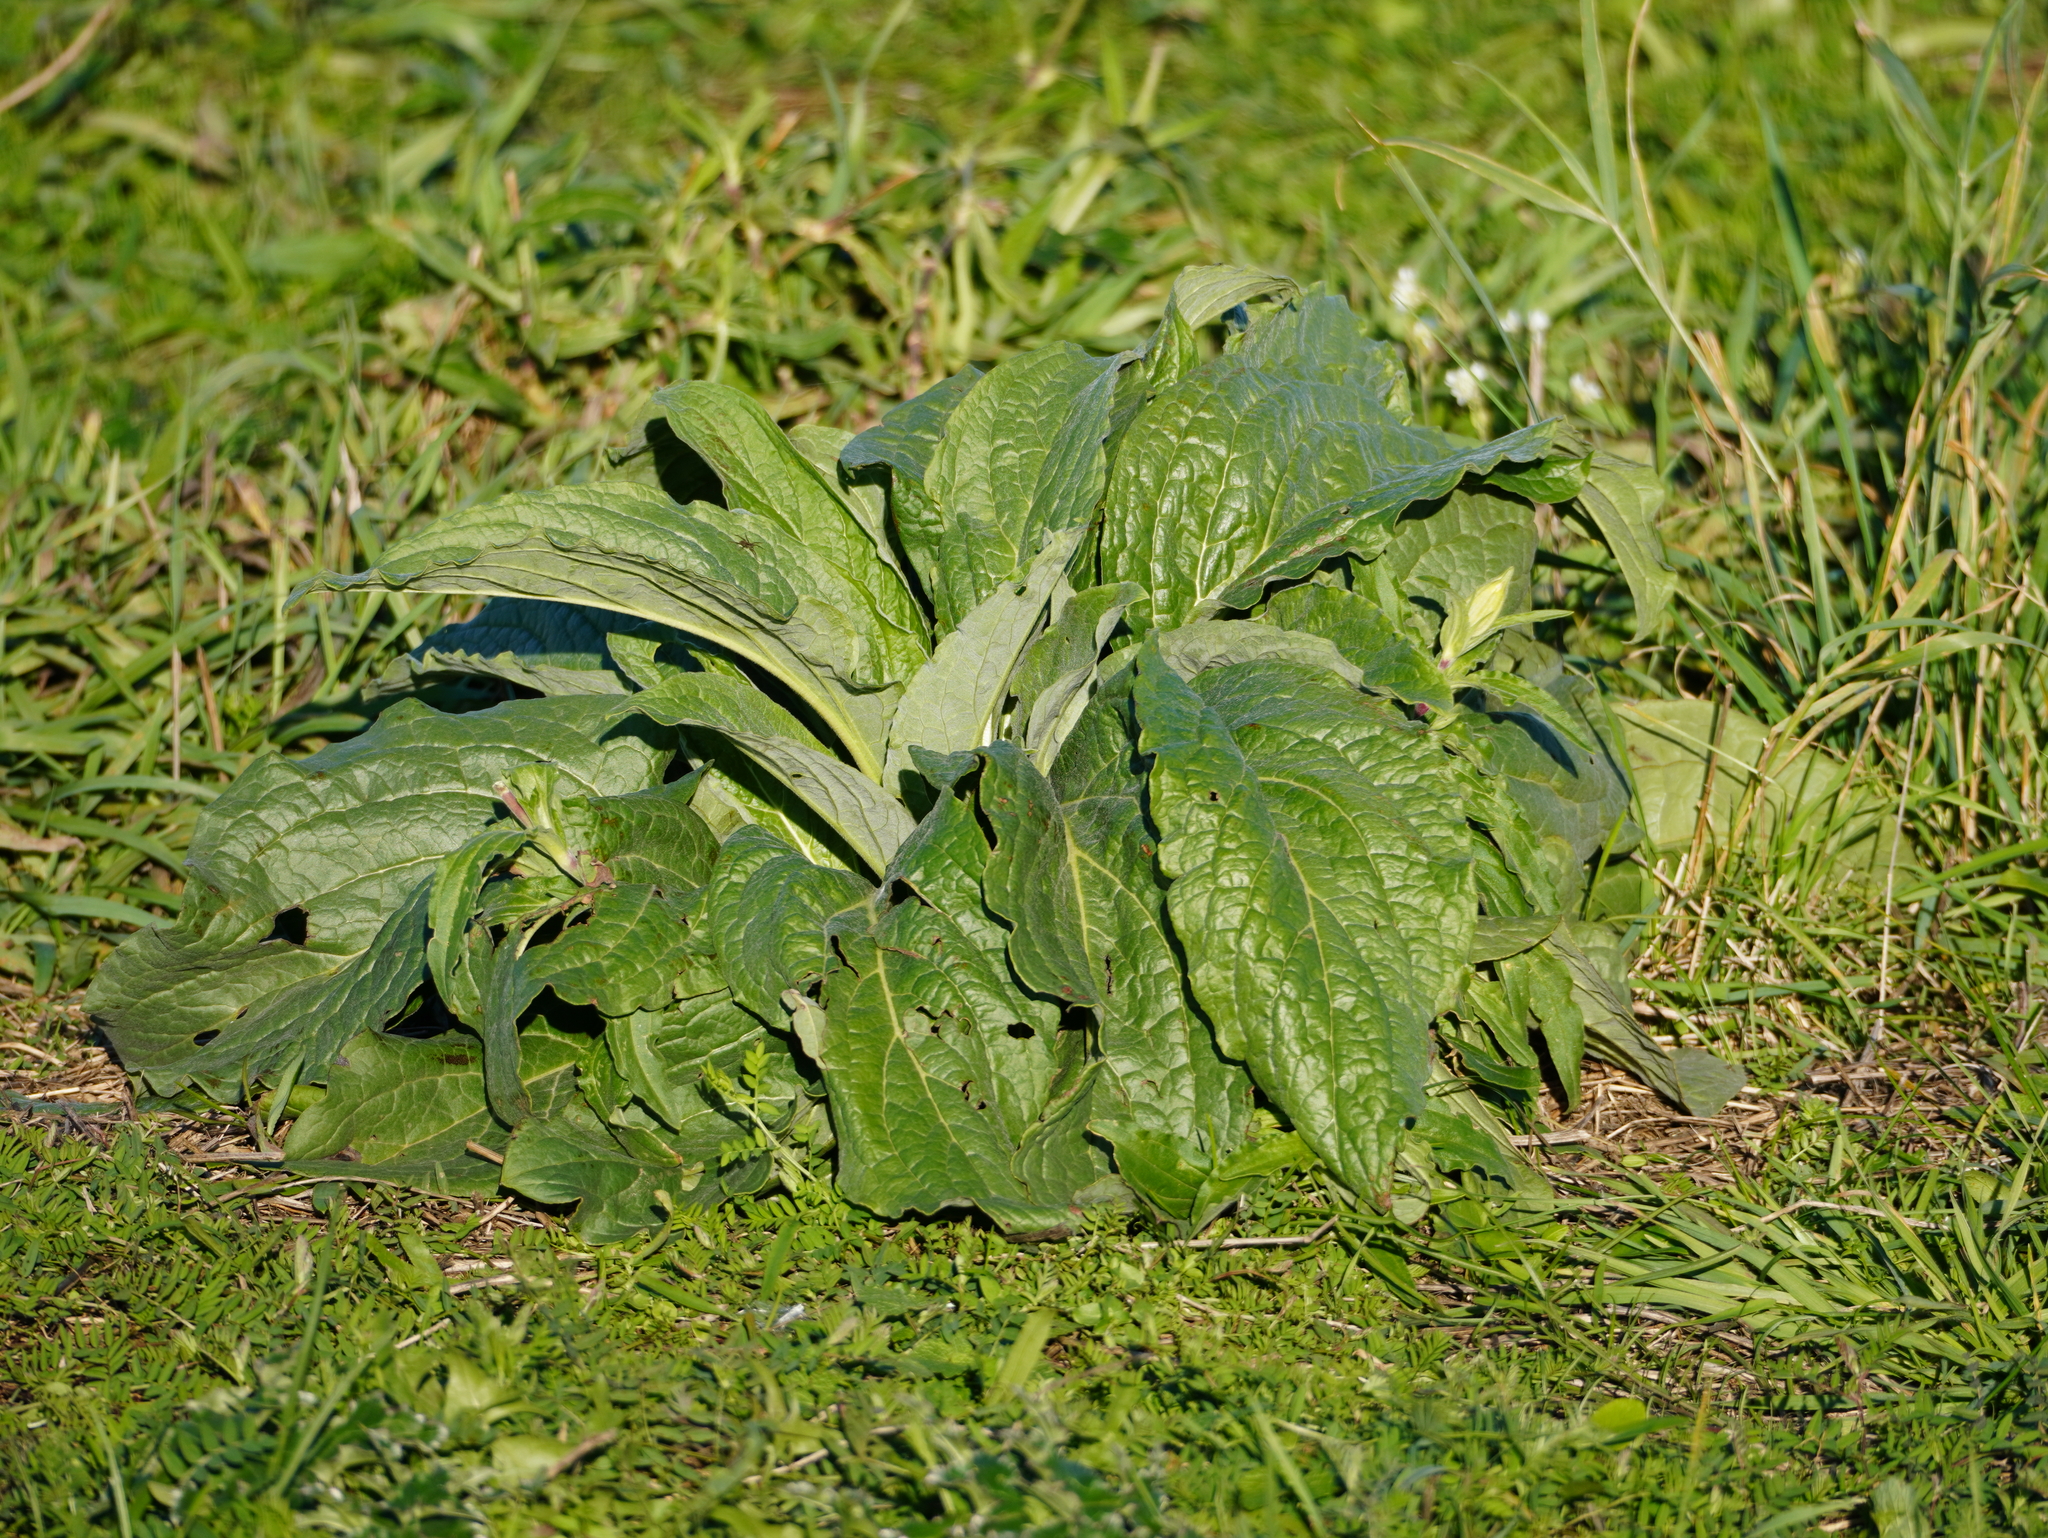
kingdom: Plantae
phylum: Tracheophyta
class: Magnoliopsida
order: Boraginales
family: Boraginaceae
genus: Cynoglossum
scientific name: Cynoglossum officinale
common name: Hound's-tongue
